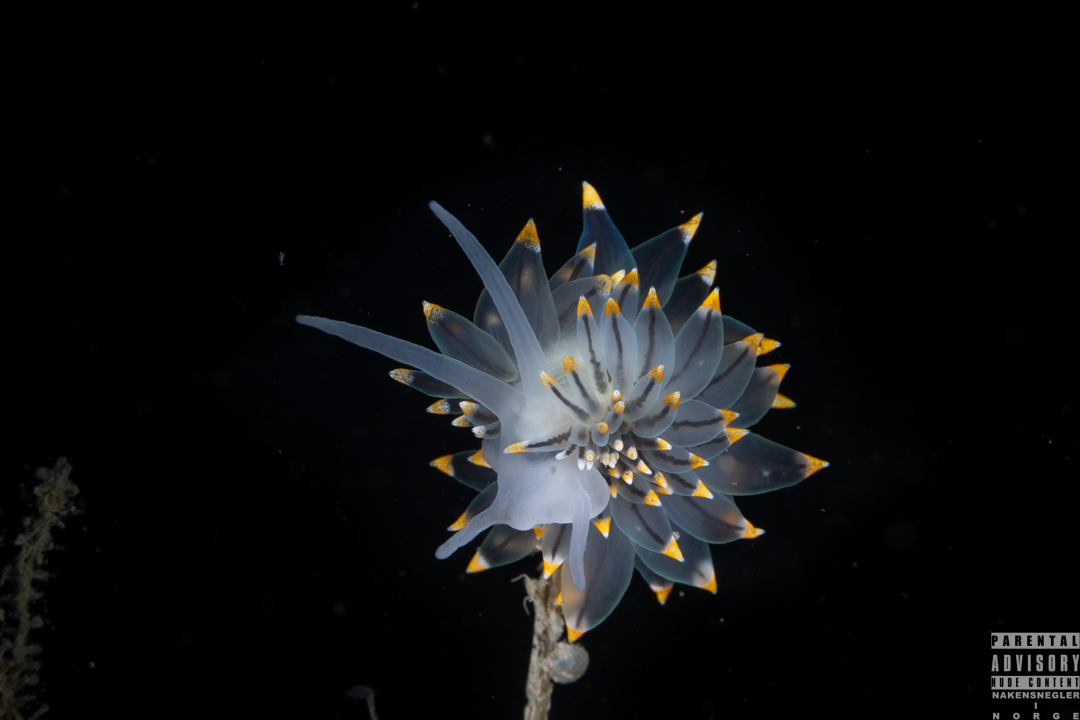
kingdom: Animalia
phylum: Mollusca
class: Gastropoda
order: Nudibranchia
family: Eubranchidae
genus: Eubranchus
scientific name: Eubranchus tricolor
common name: Painted balloon aeolis
